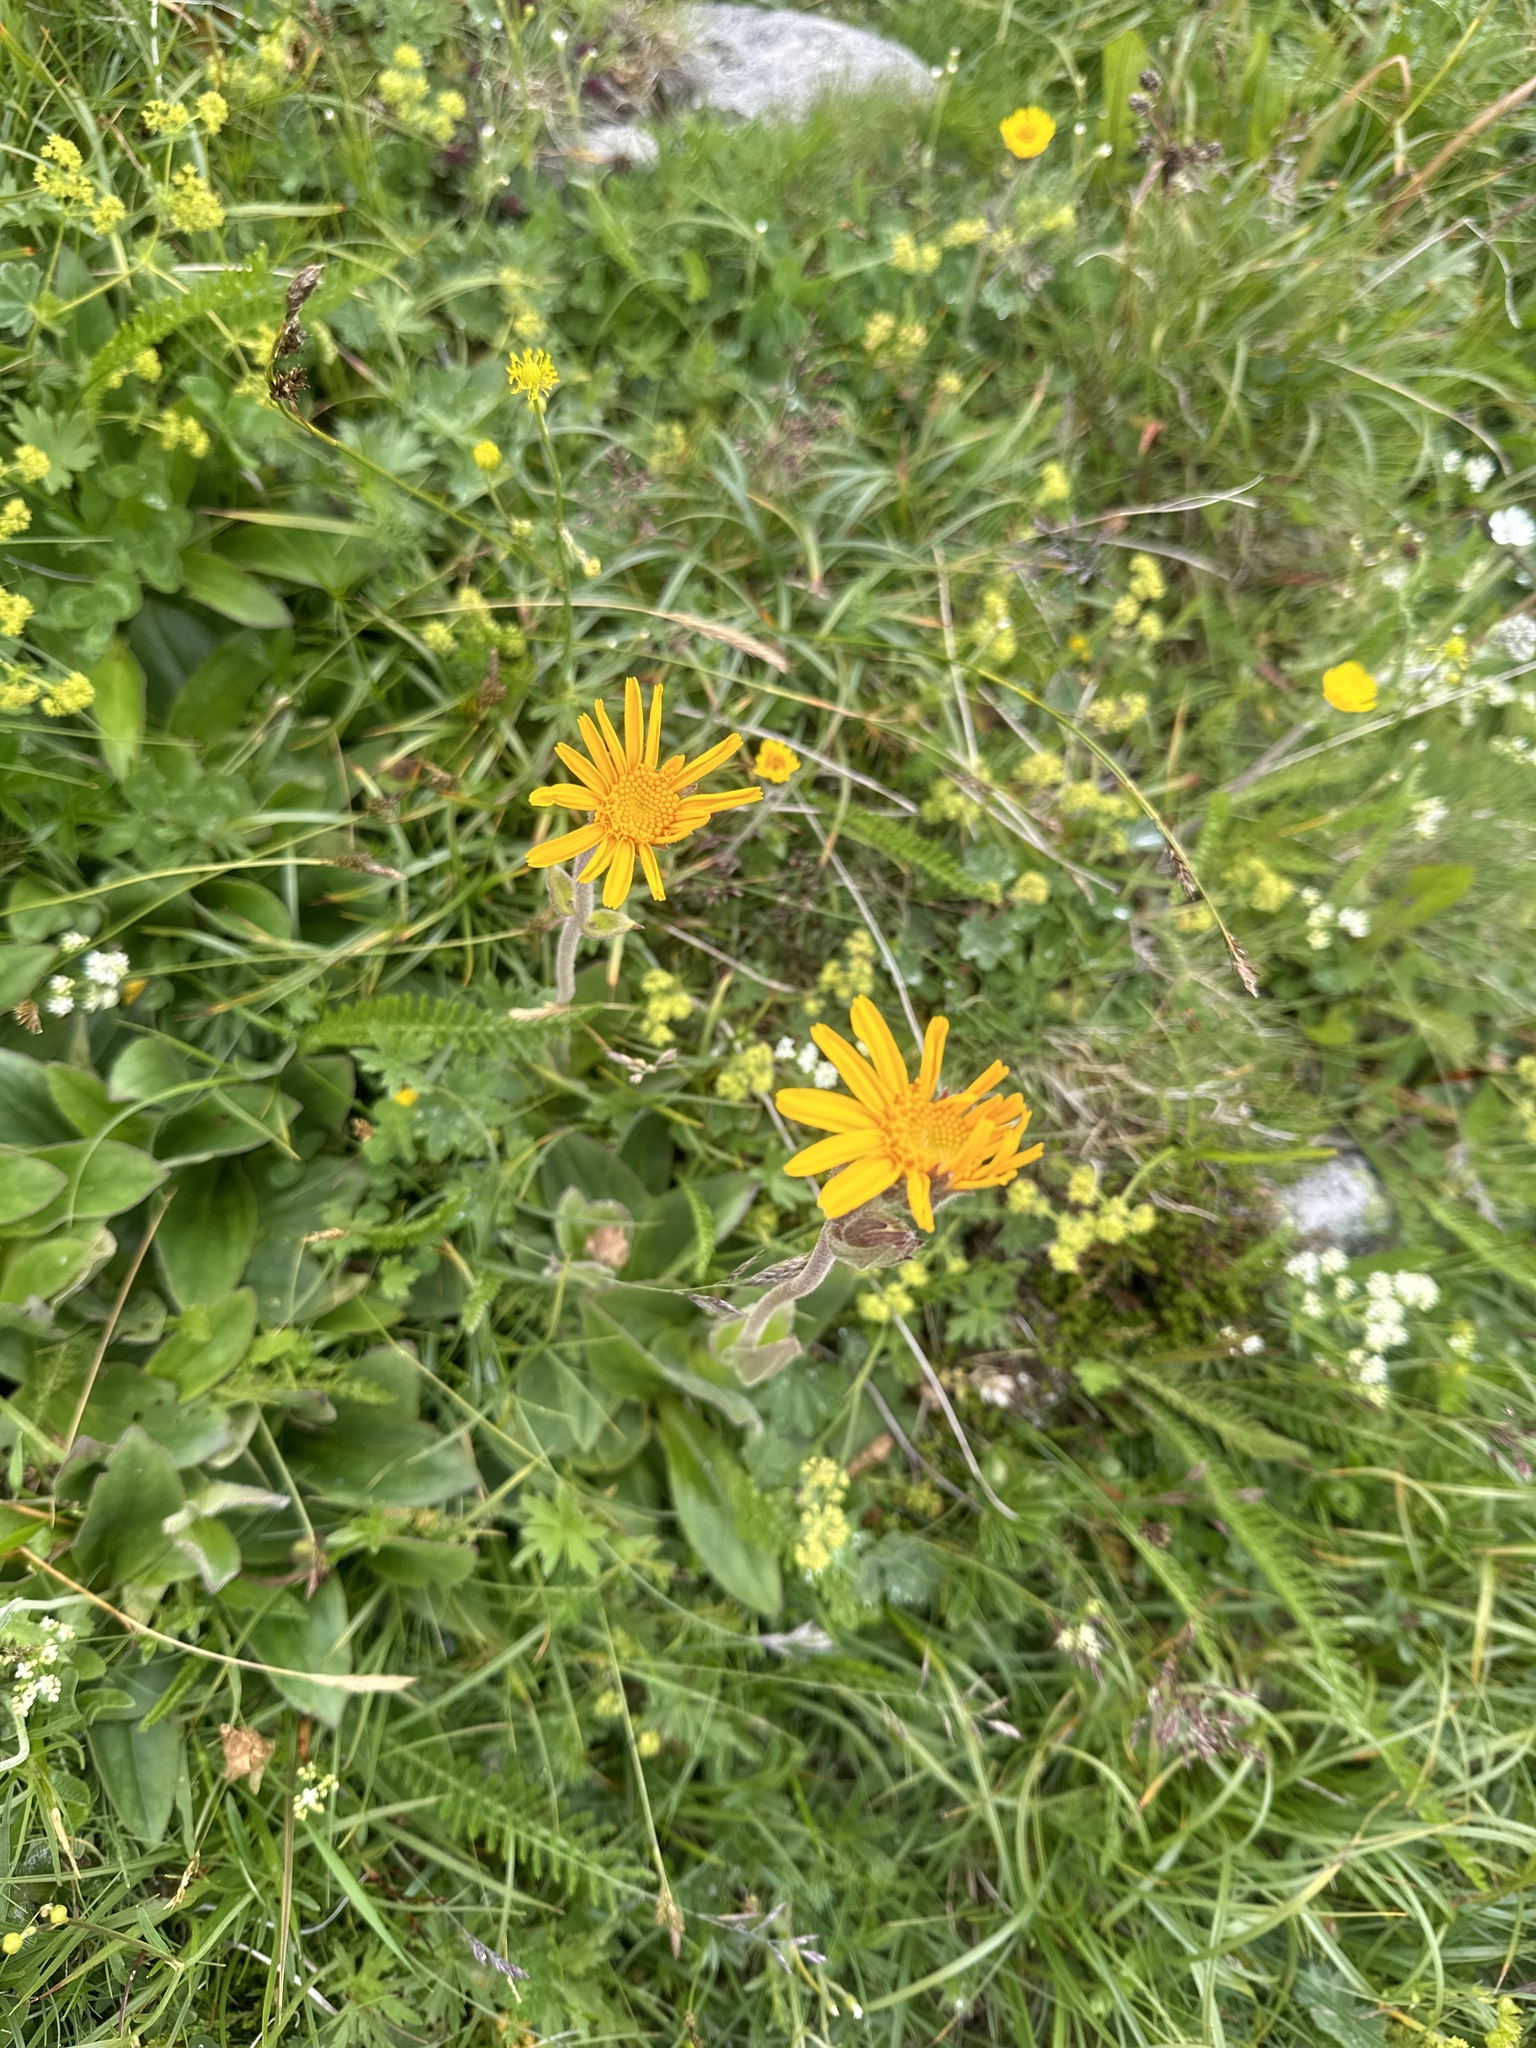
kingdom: Plantae
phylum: Tracheophyta
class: Magnoliopsida
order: Asterales
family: Asteraceae
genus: Arnica
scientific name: Arnica montana
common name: Leopard's bane
